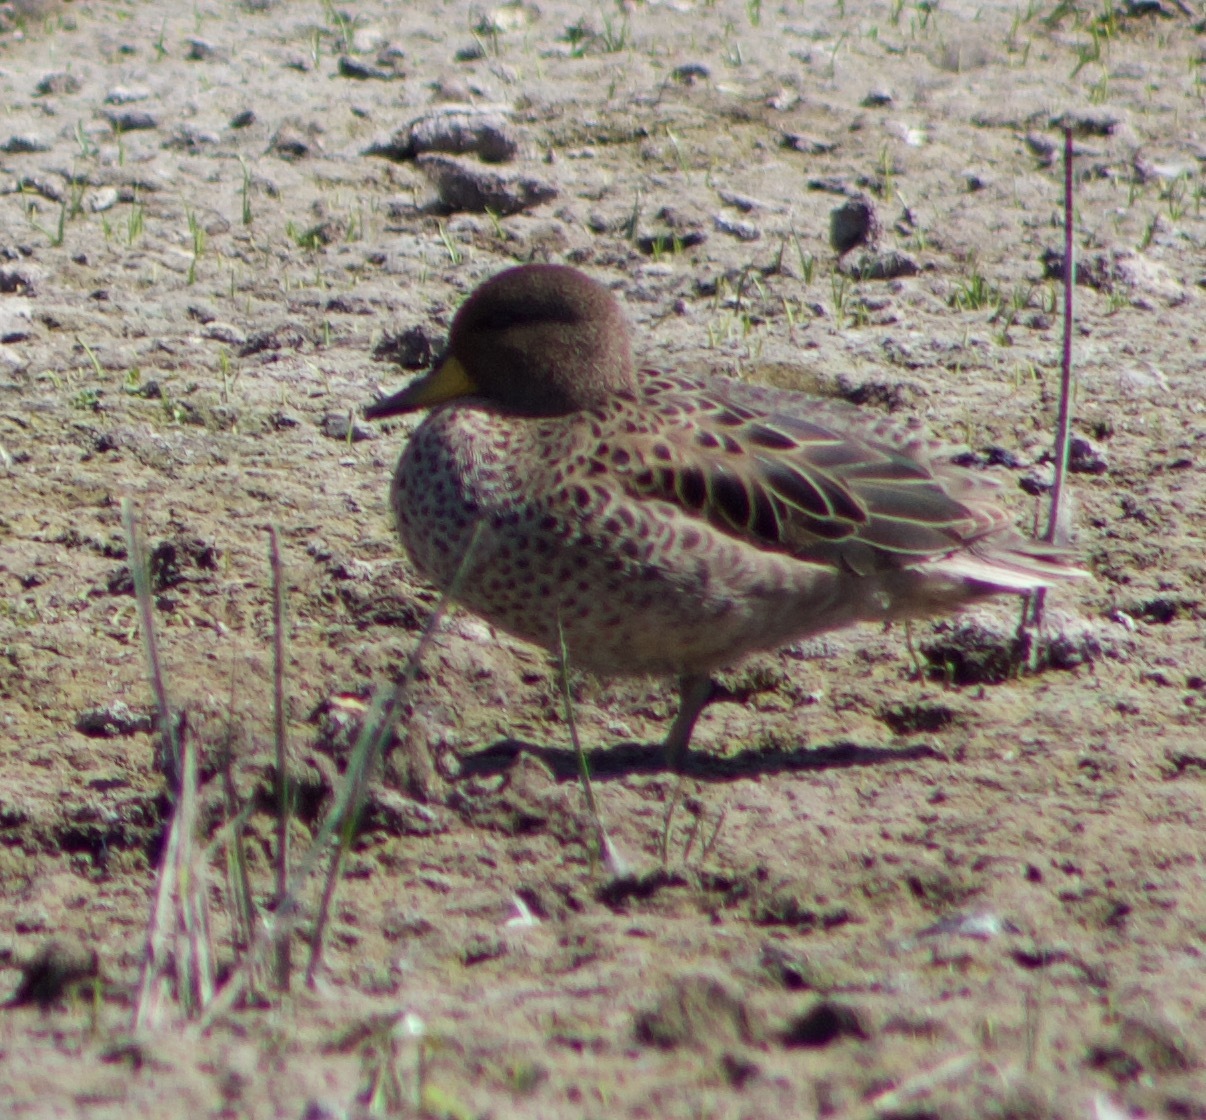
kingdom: Animalia
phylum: Chordata
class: Aves
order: Anseriformes
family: Anatidae
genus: Anas
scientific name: Anas flavirostris
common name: Yellow-billed teal
